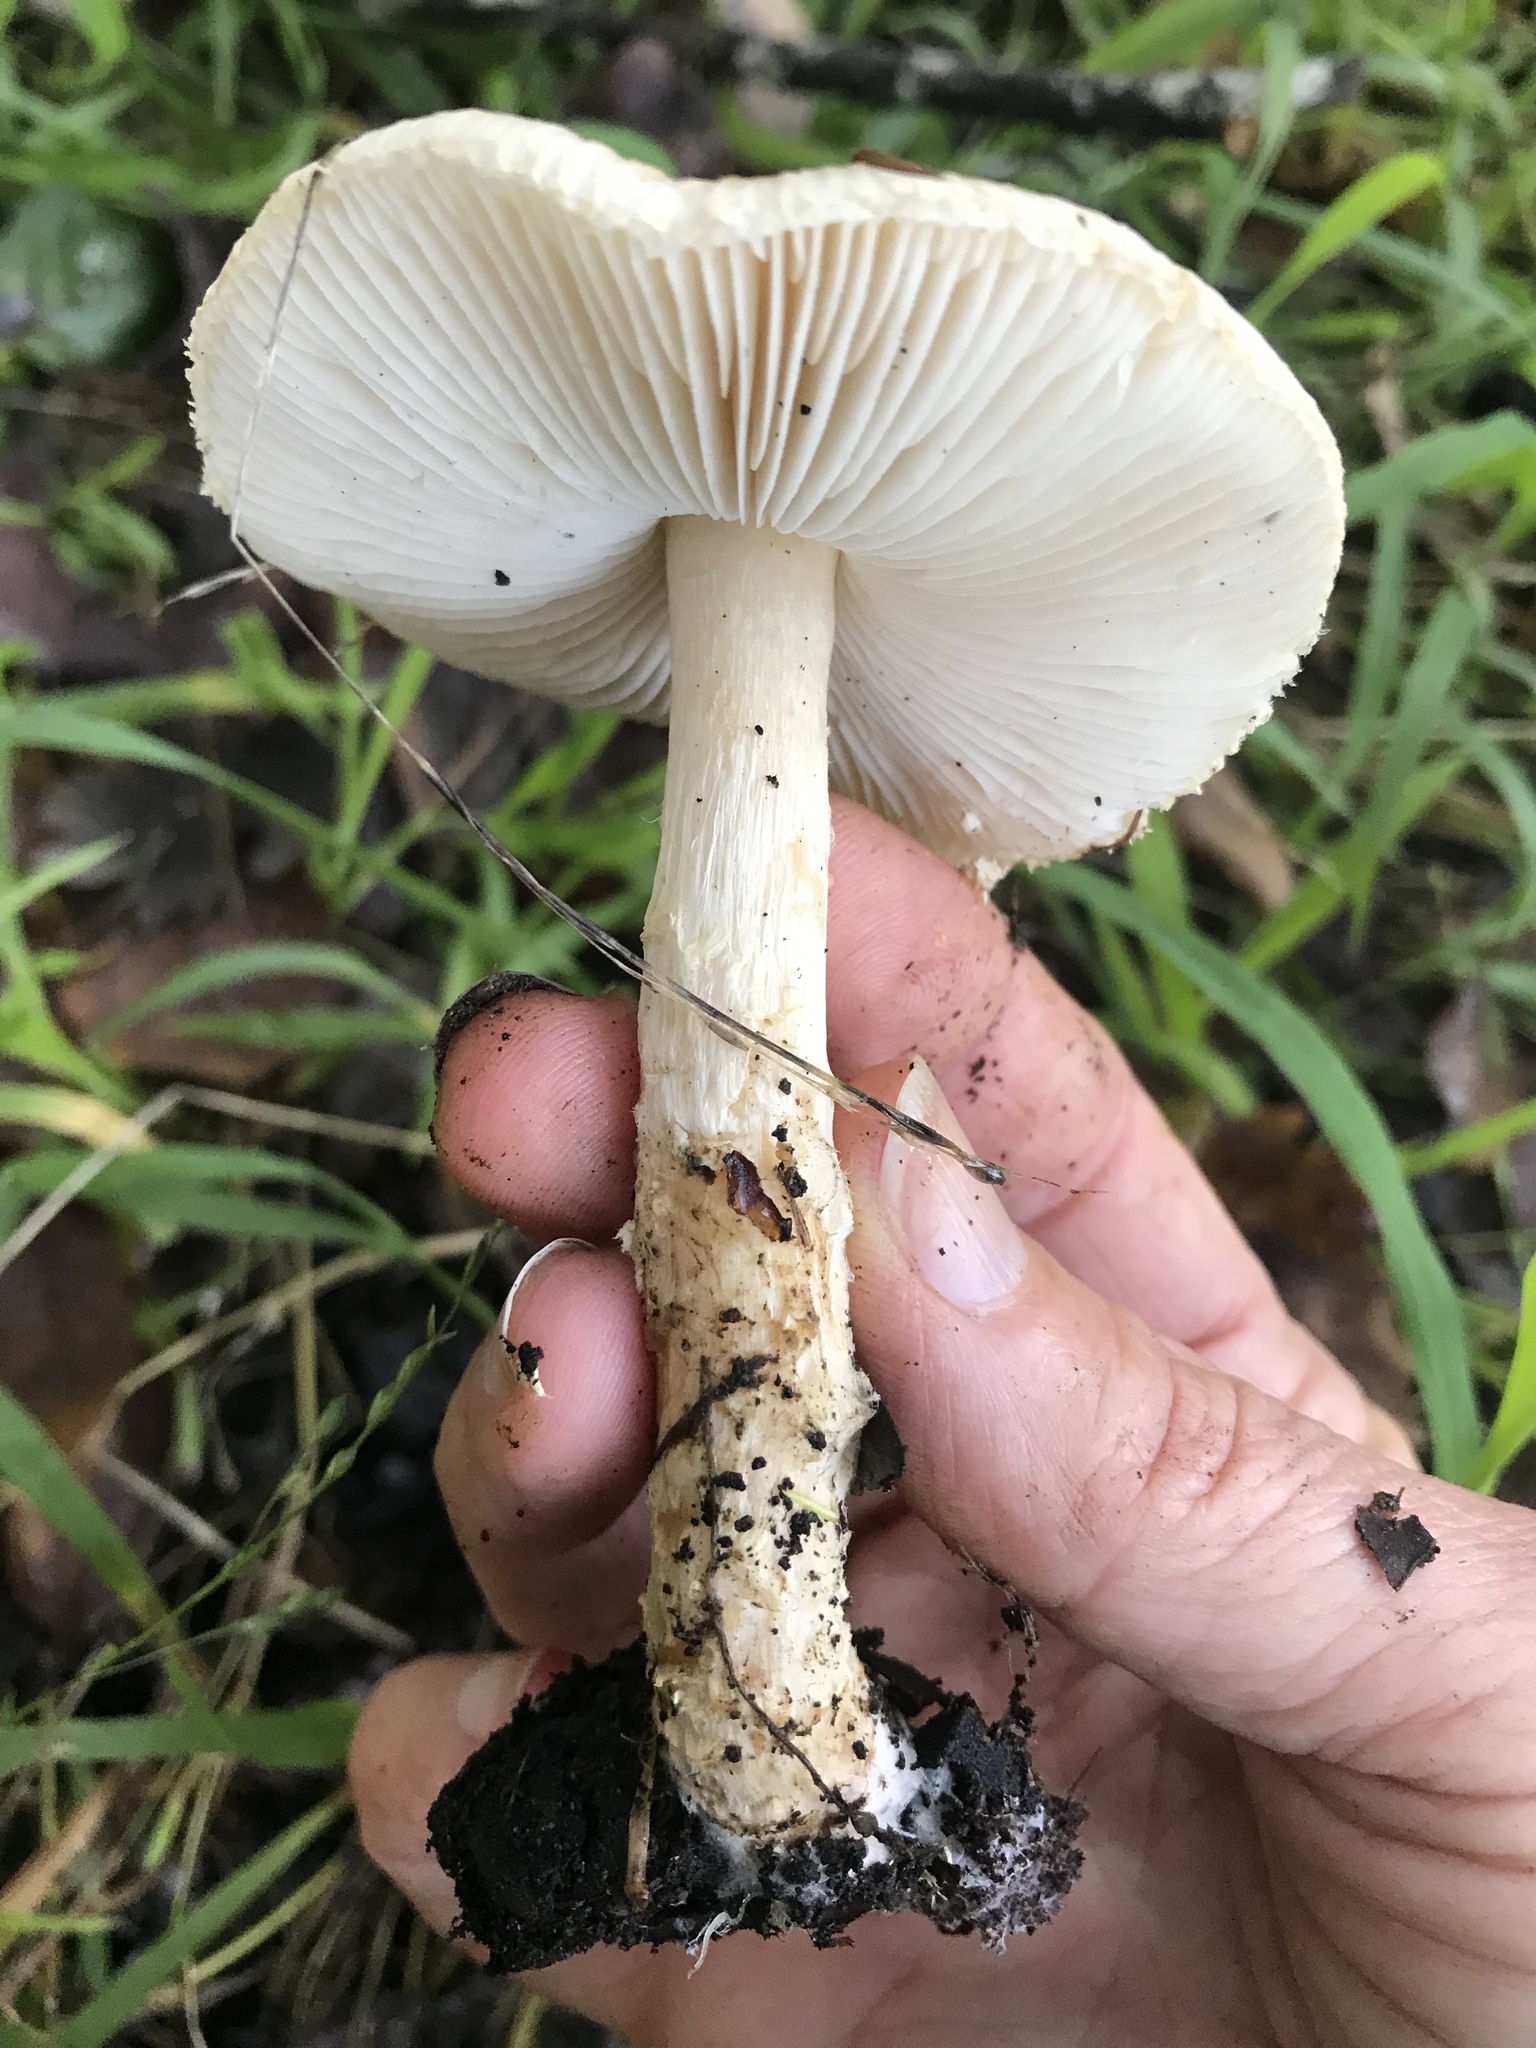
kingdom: Fungi
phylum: Basidiomycota
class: Agaricomycetes
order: Agaricales
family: Agaricaceae
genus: Lepiota
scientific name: Lepiota rubrotinctoides
